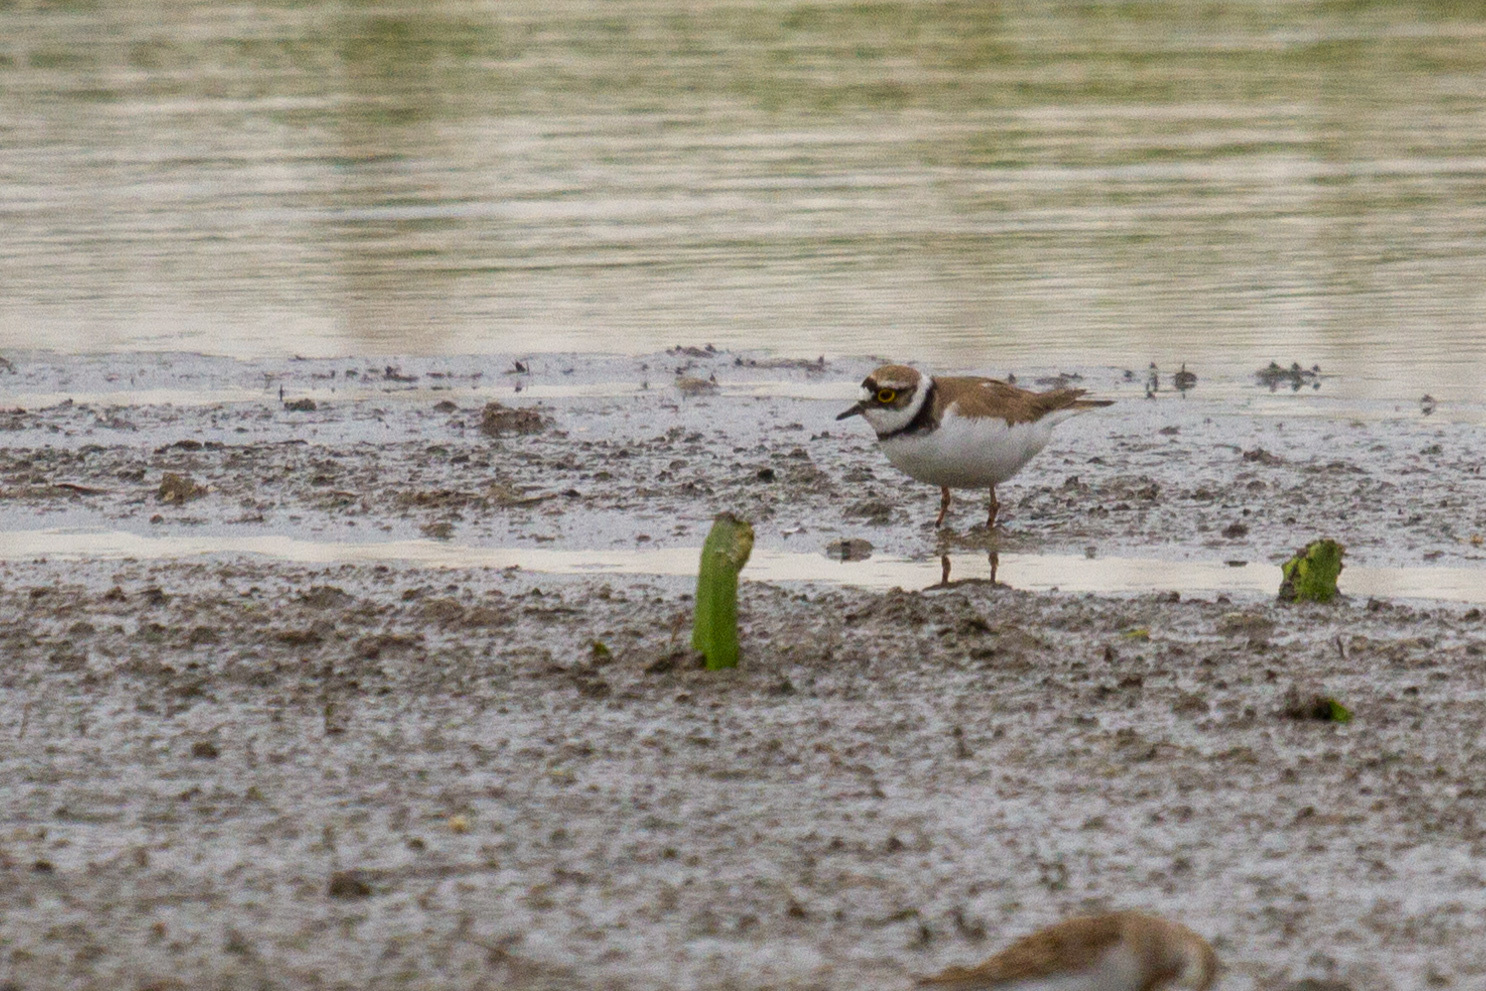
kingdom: Animalia
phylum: Chordata
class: Aves
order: Charadriiformes
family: Charadriidae
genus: Charadrius
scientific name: Charadrius dubius
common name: Little ringed plover
